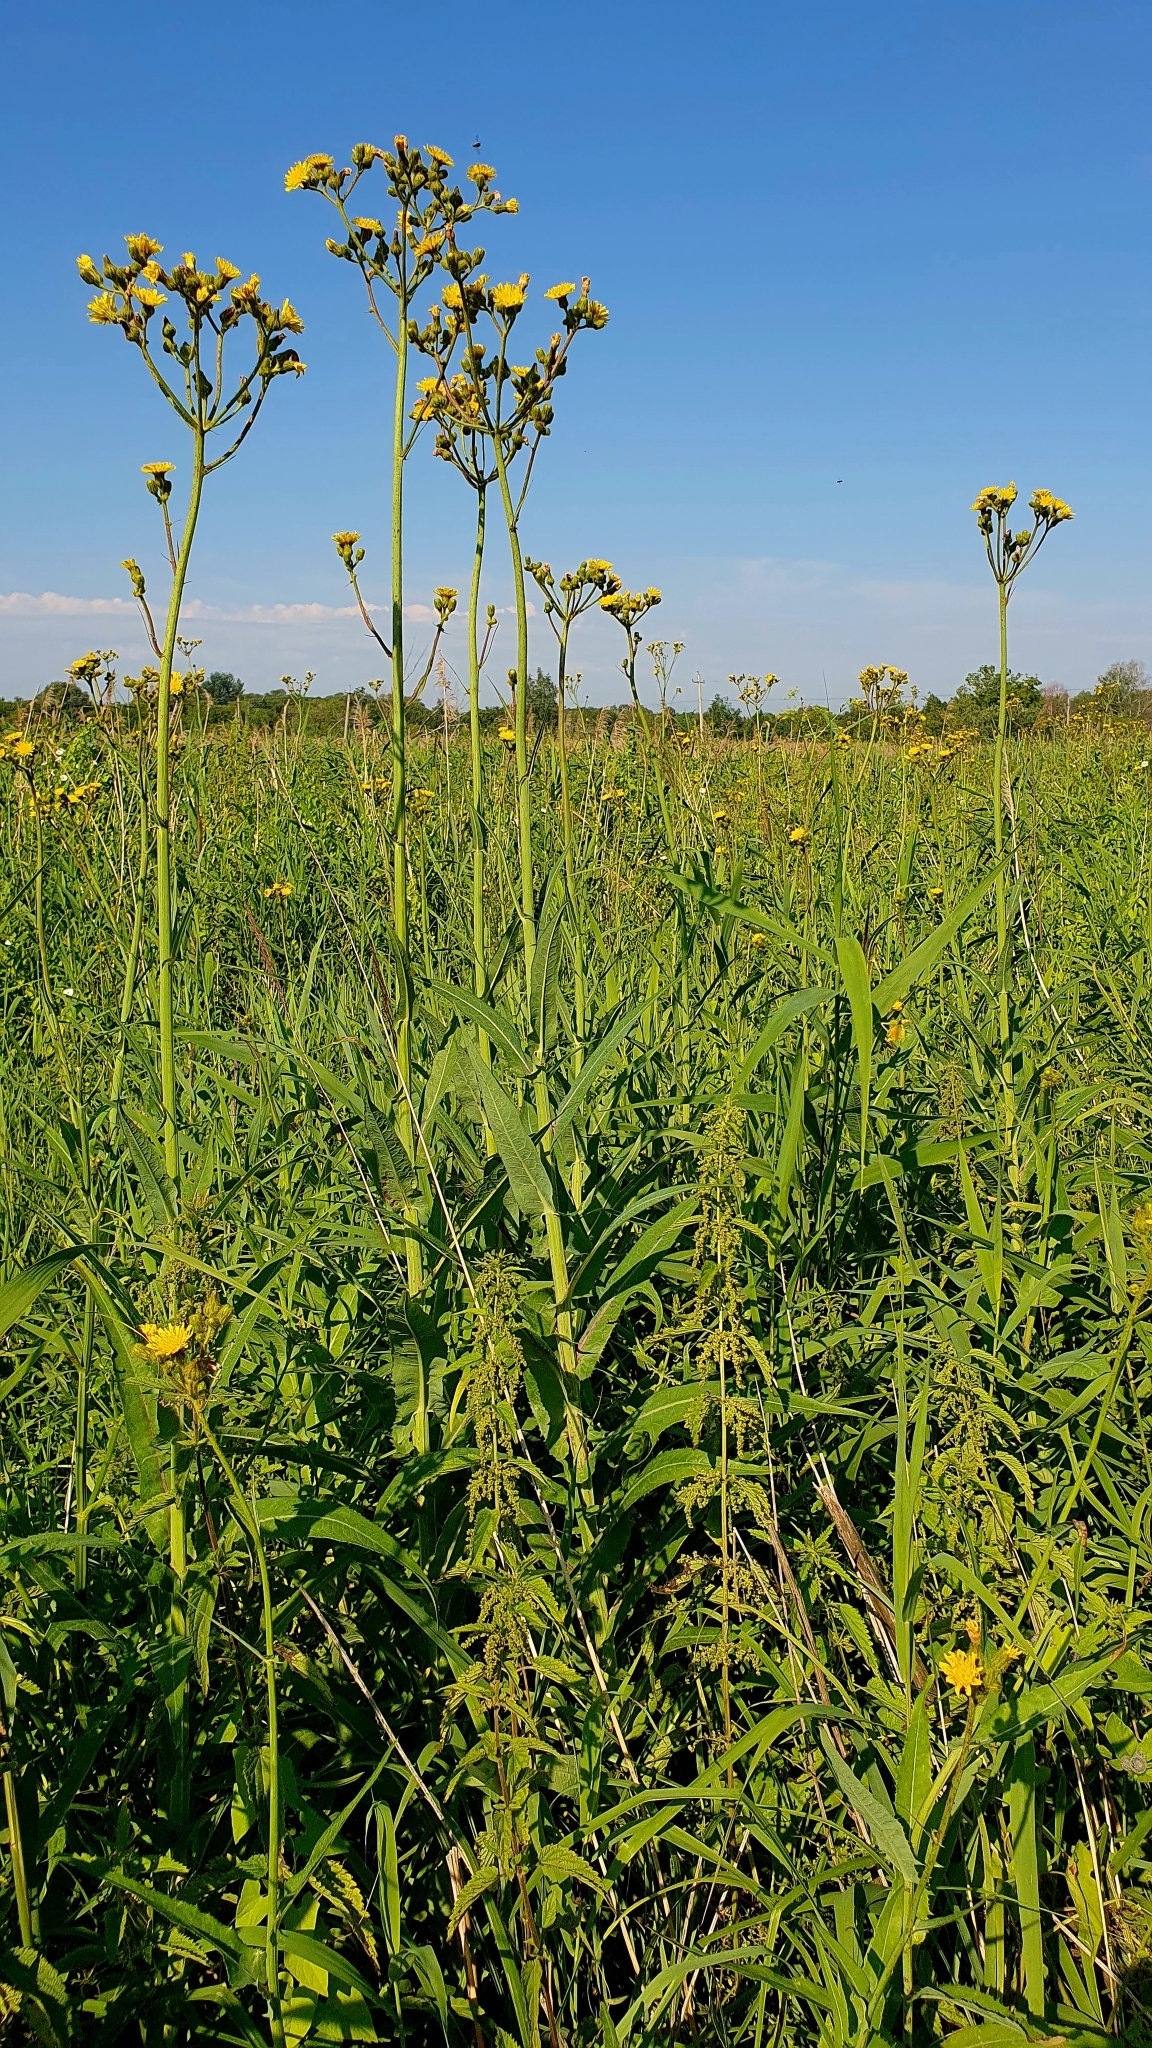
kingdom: Plantae
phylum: Tracheophyta
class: Magnoliopsida
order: Asterales
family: Asteraceae
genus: Sonchus
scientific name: Sonchus palustris
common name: Marsh sow-thistle
